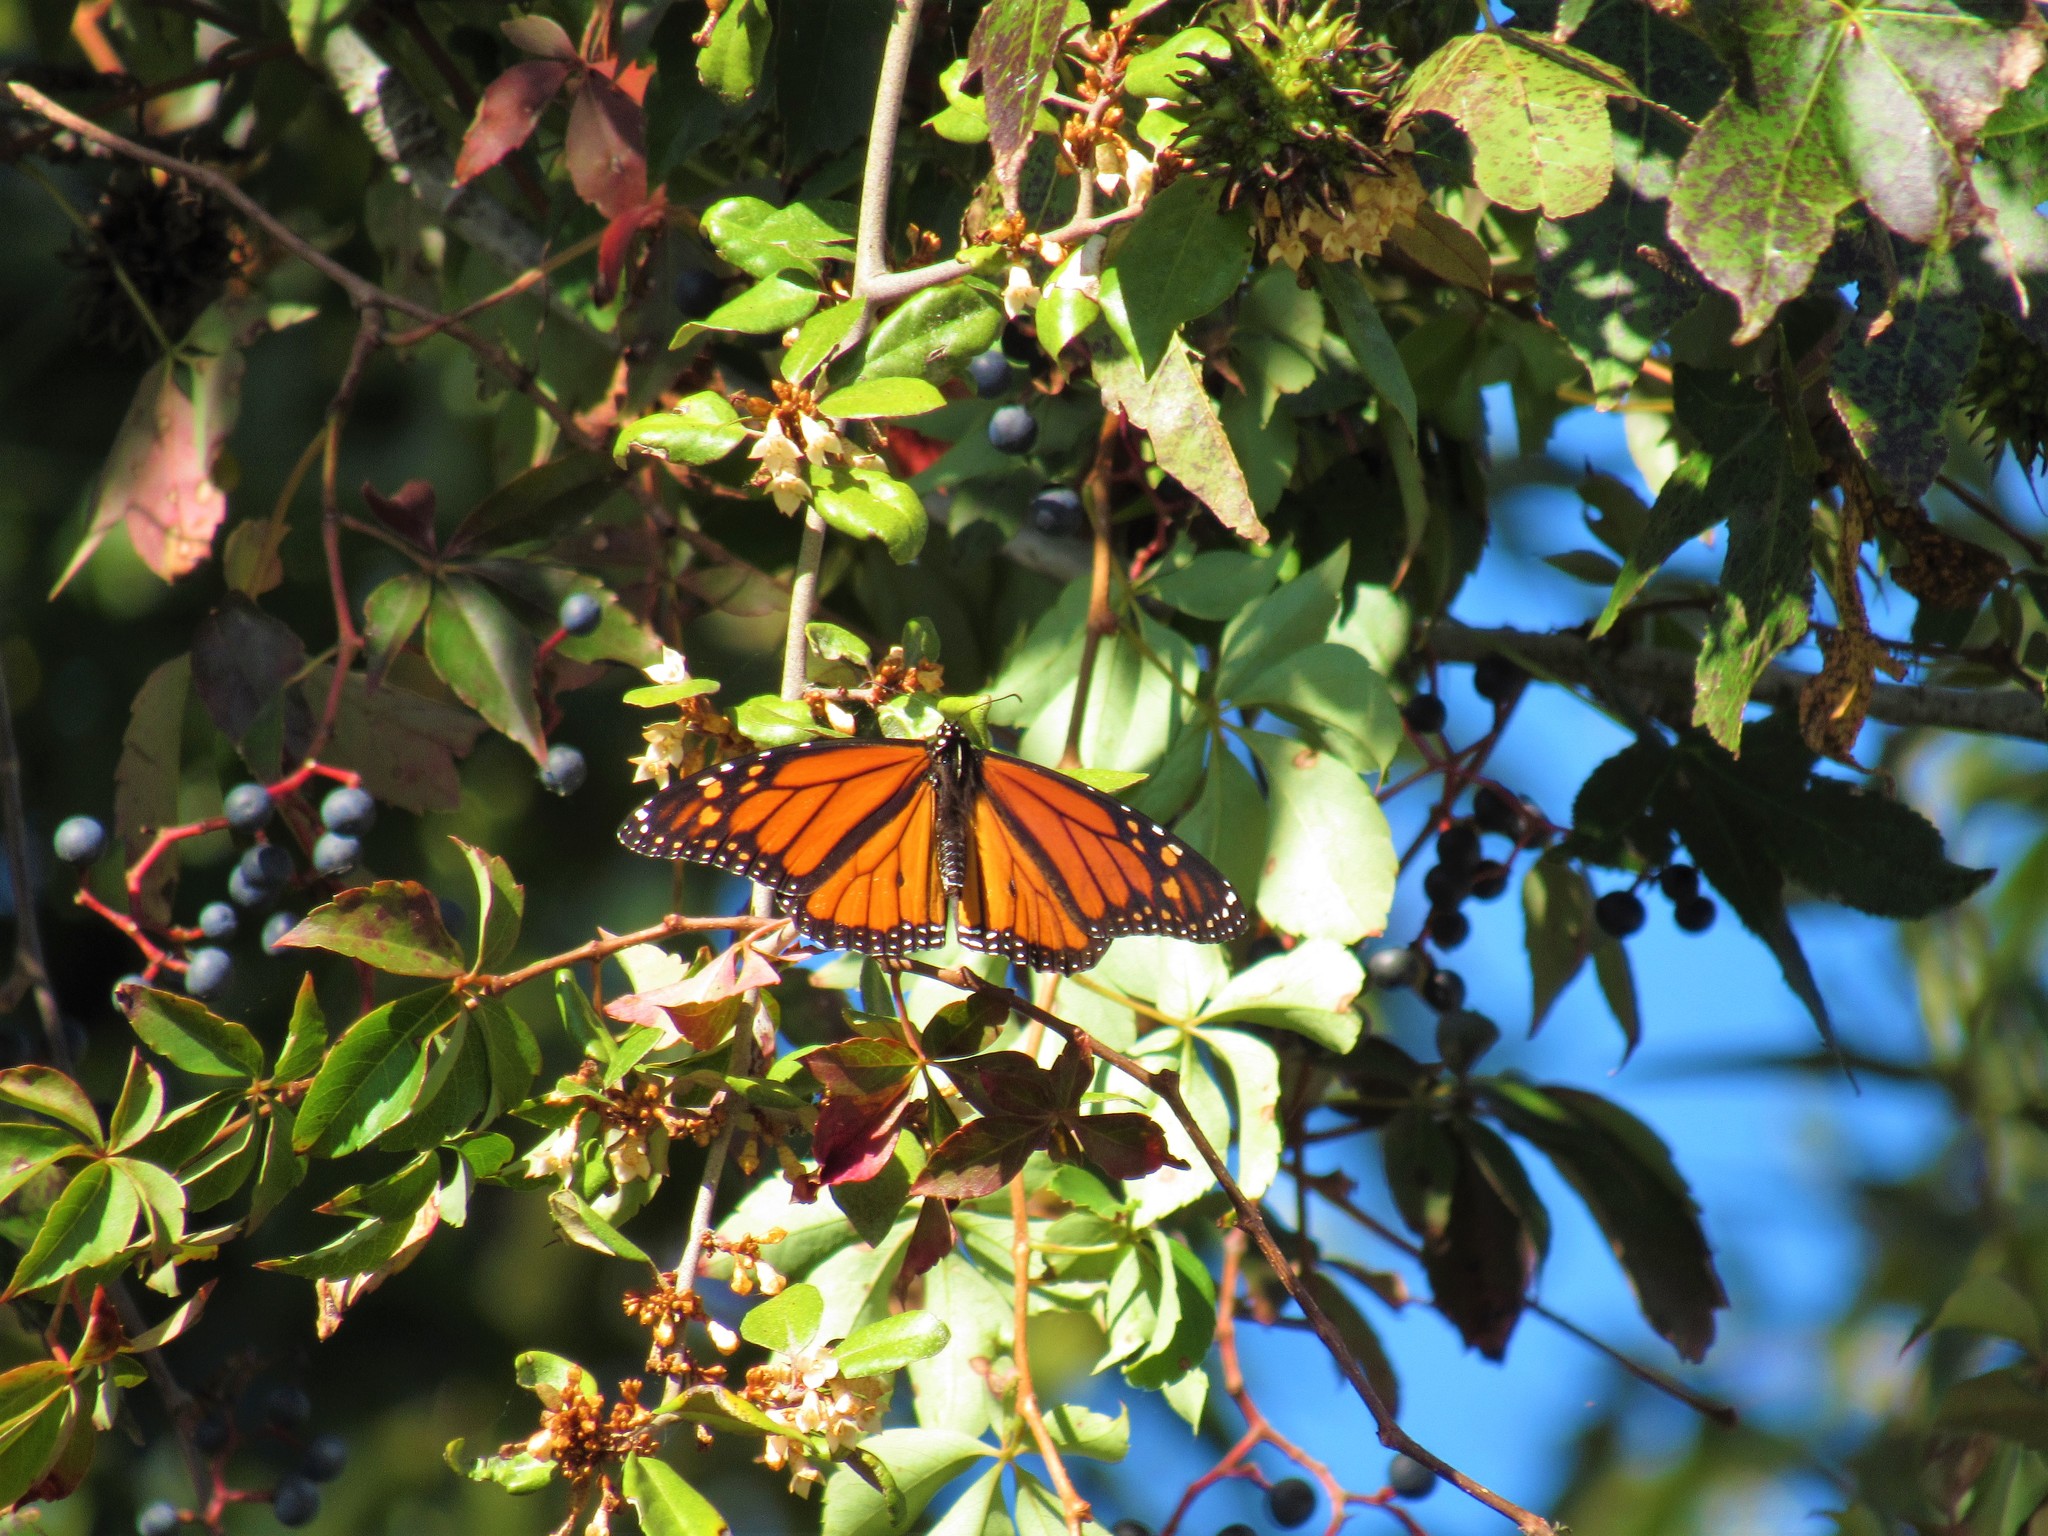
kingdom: Animalia
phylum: Arthropoda
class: Insecta
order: Lepidoptera
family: Nymphalidae
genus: Danaus
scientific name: Danaus plexippus
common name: Monarch
